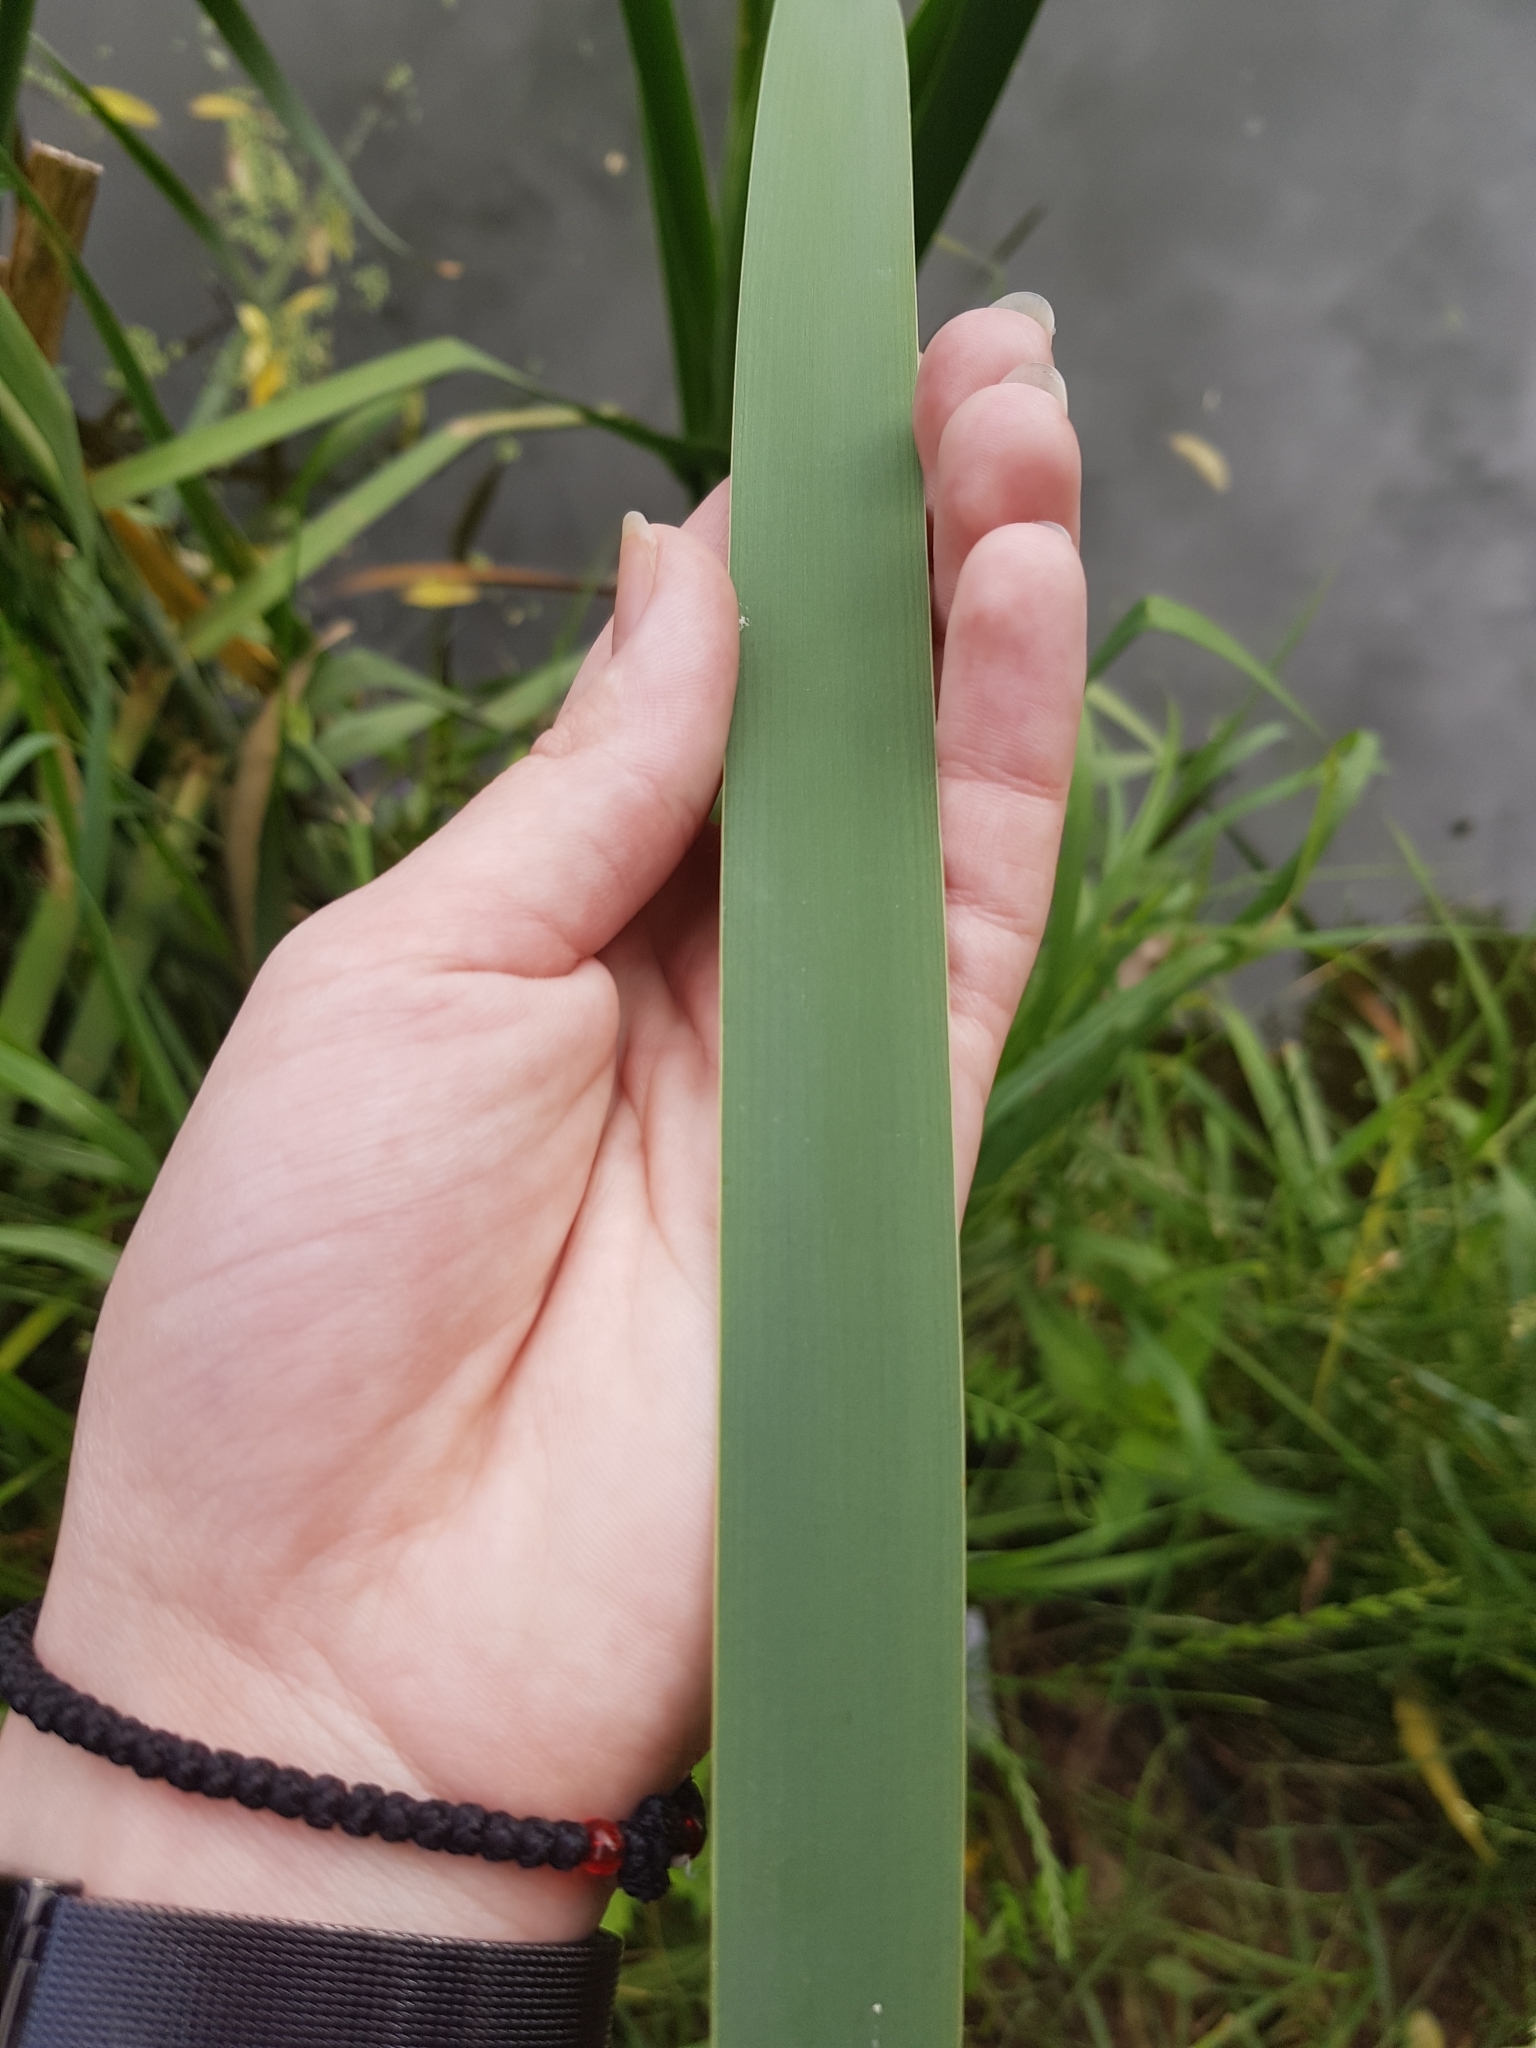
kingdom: Plantae
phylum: Tracheophyta
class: Liliopsida
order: Poales
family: Typhaceae
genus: Typha
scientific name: Typha latifolia
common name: Broadleaf cattail
